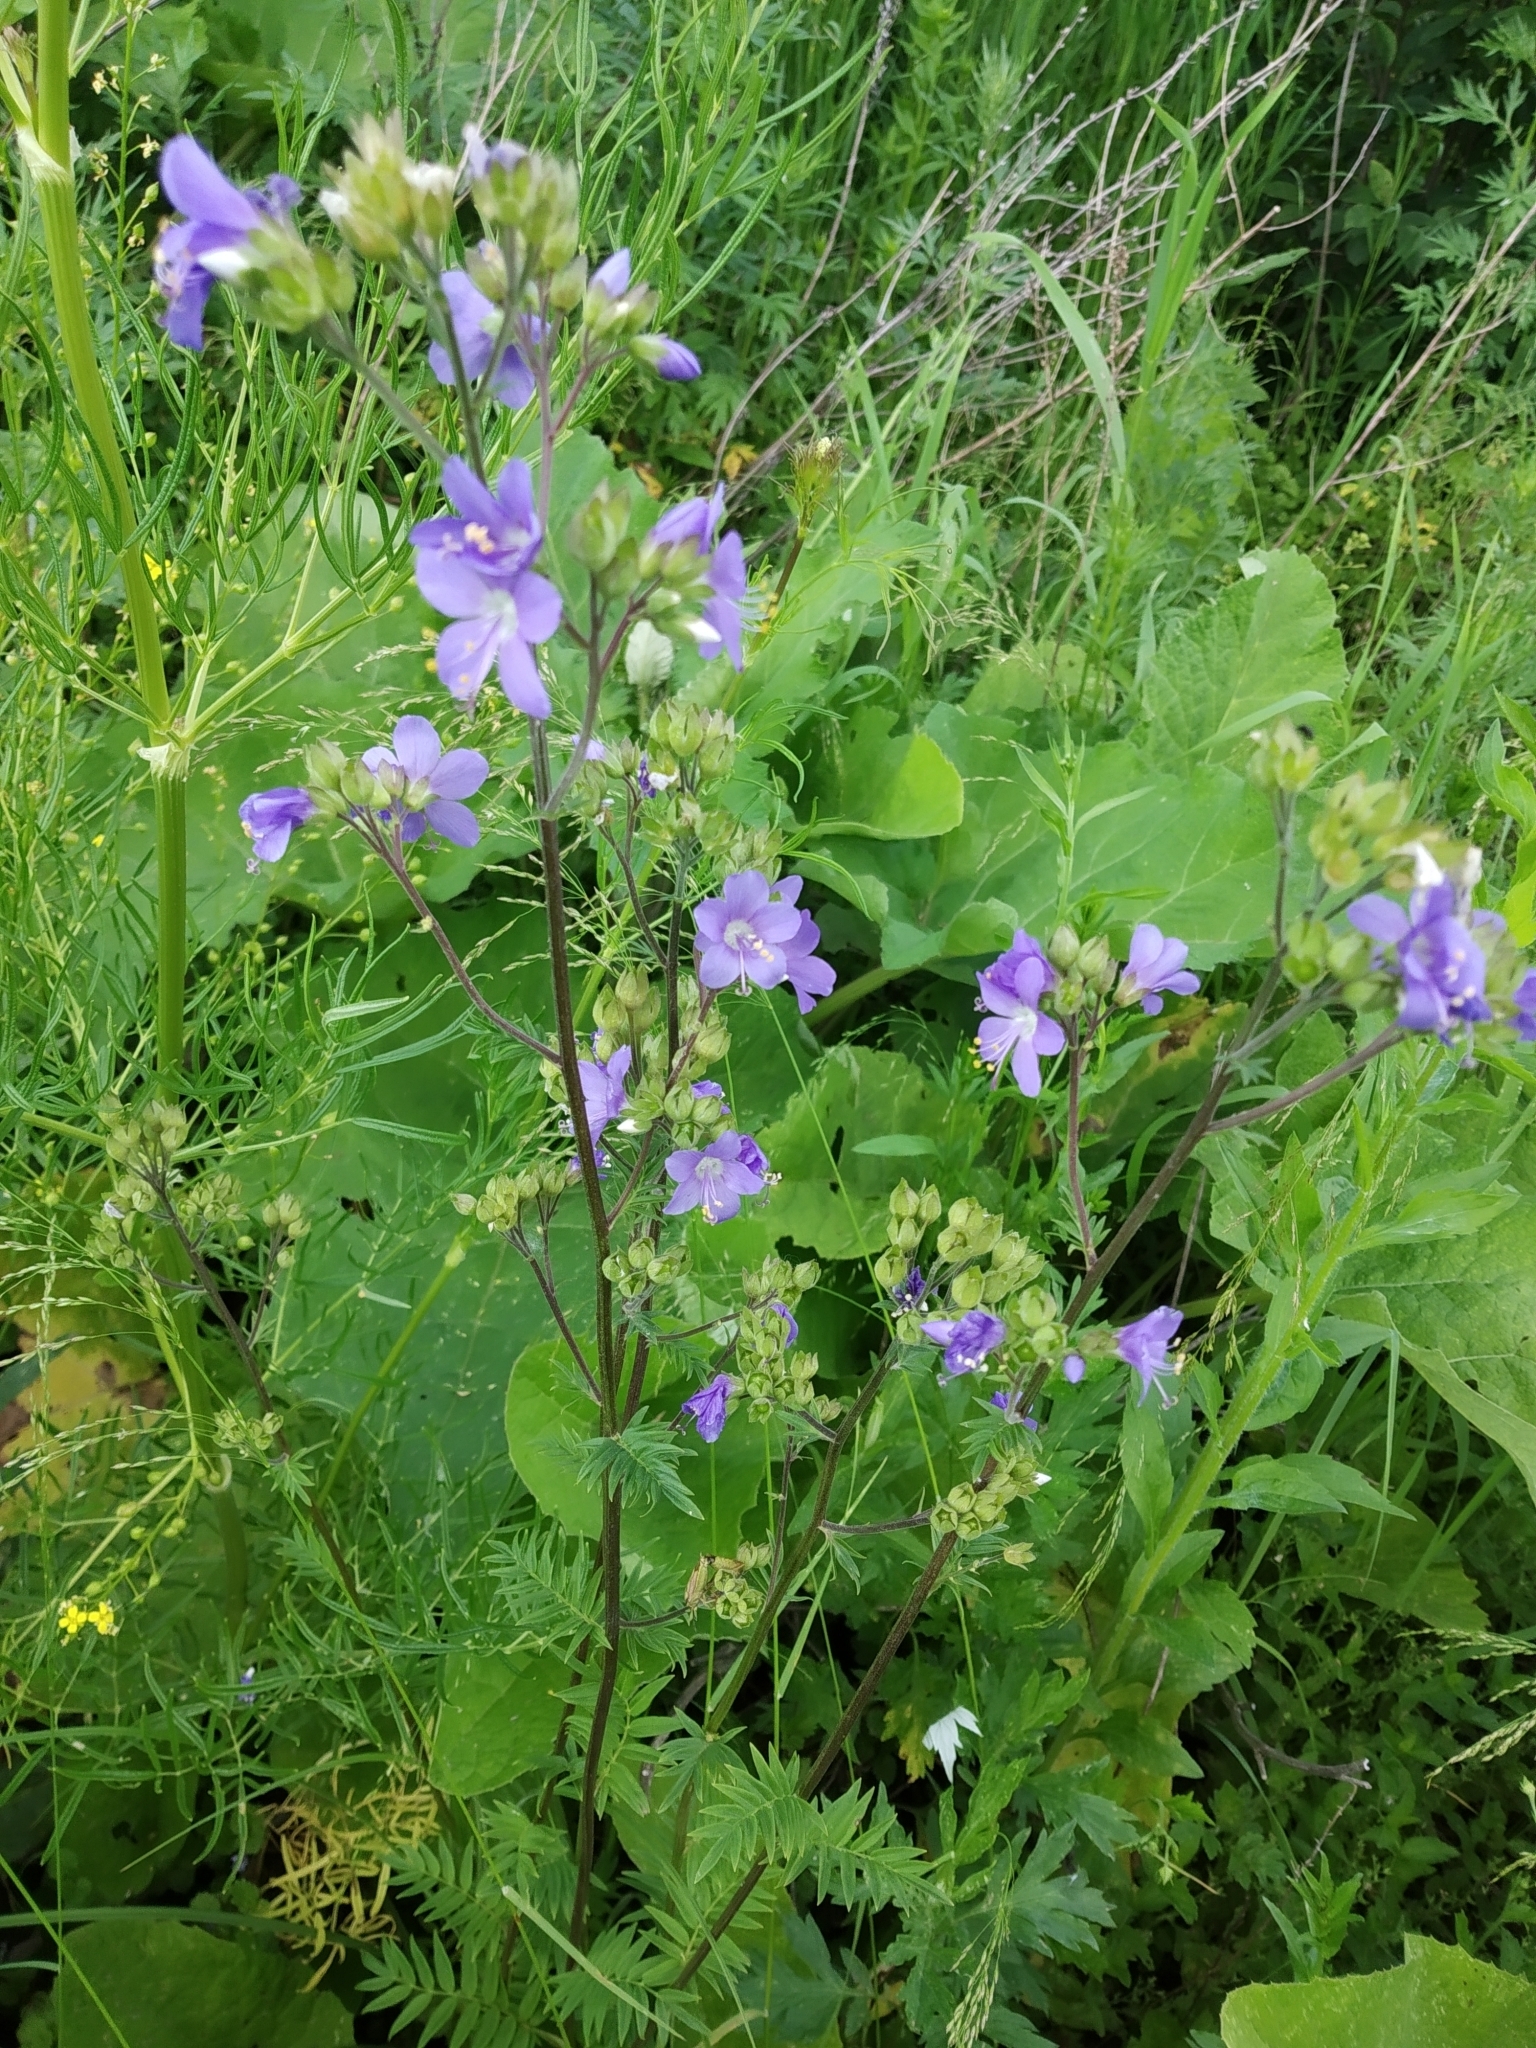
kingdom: Plantae
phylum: Tracheophyta
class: Magnoliopsida
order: Ericales
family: Polemoniaceae
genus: Polemonium
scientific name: Polemonium caeruleum
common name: Jacob's-ladder
